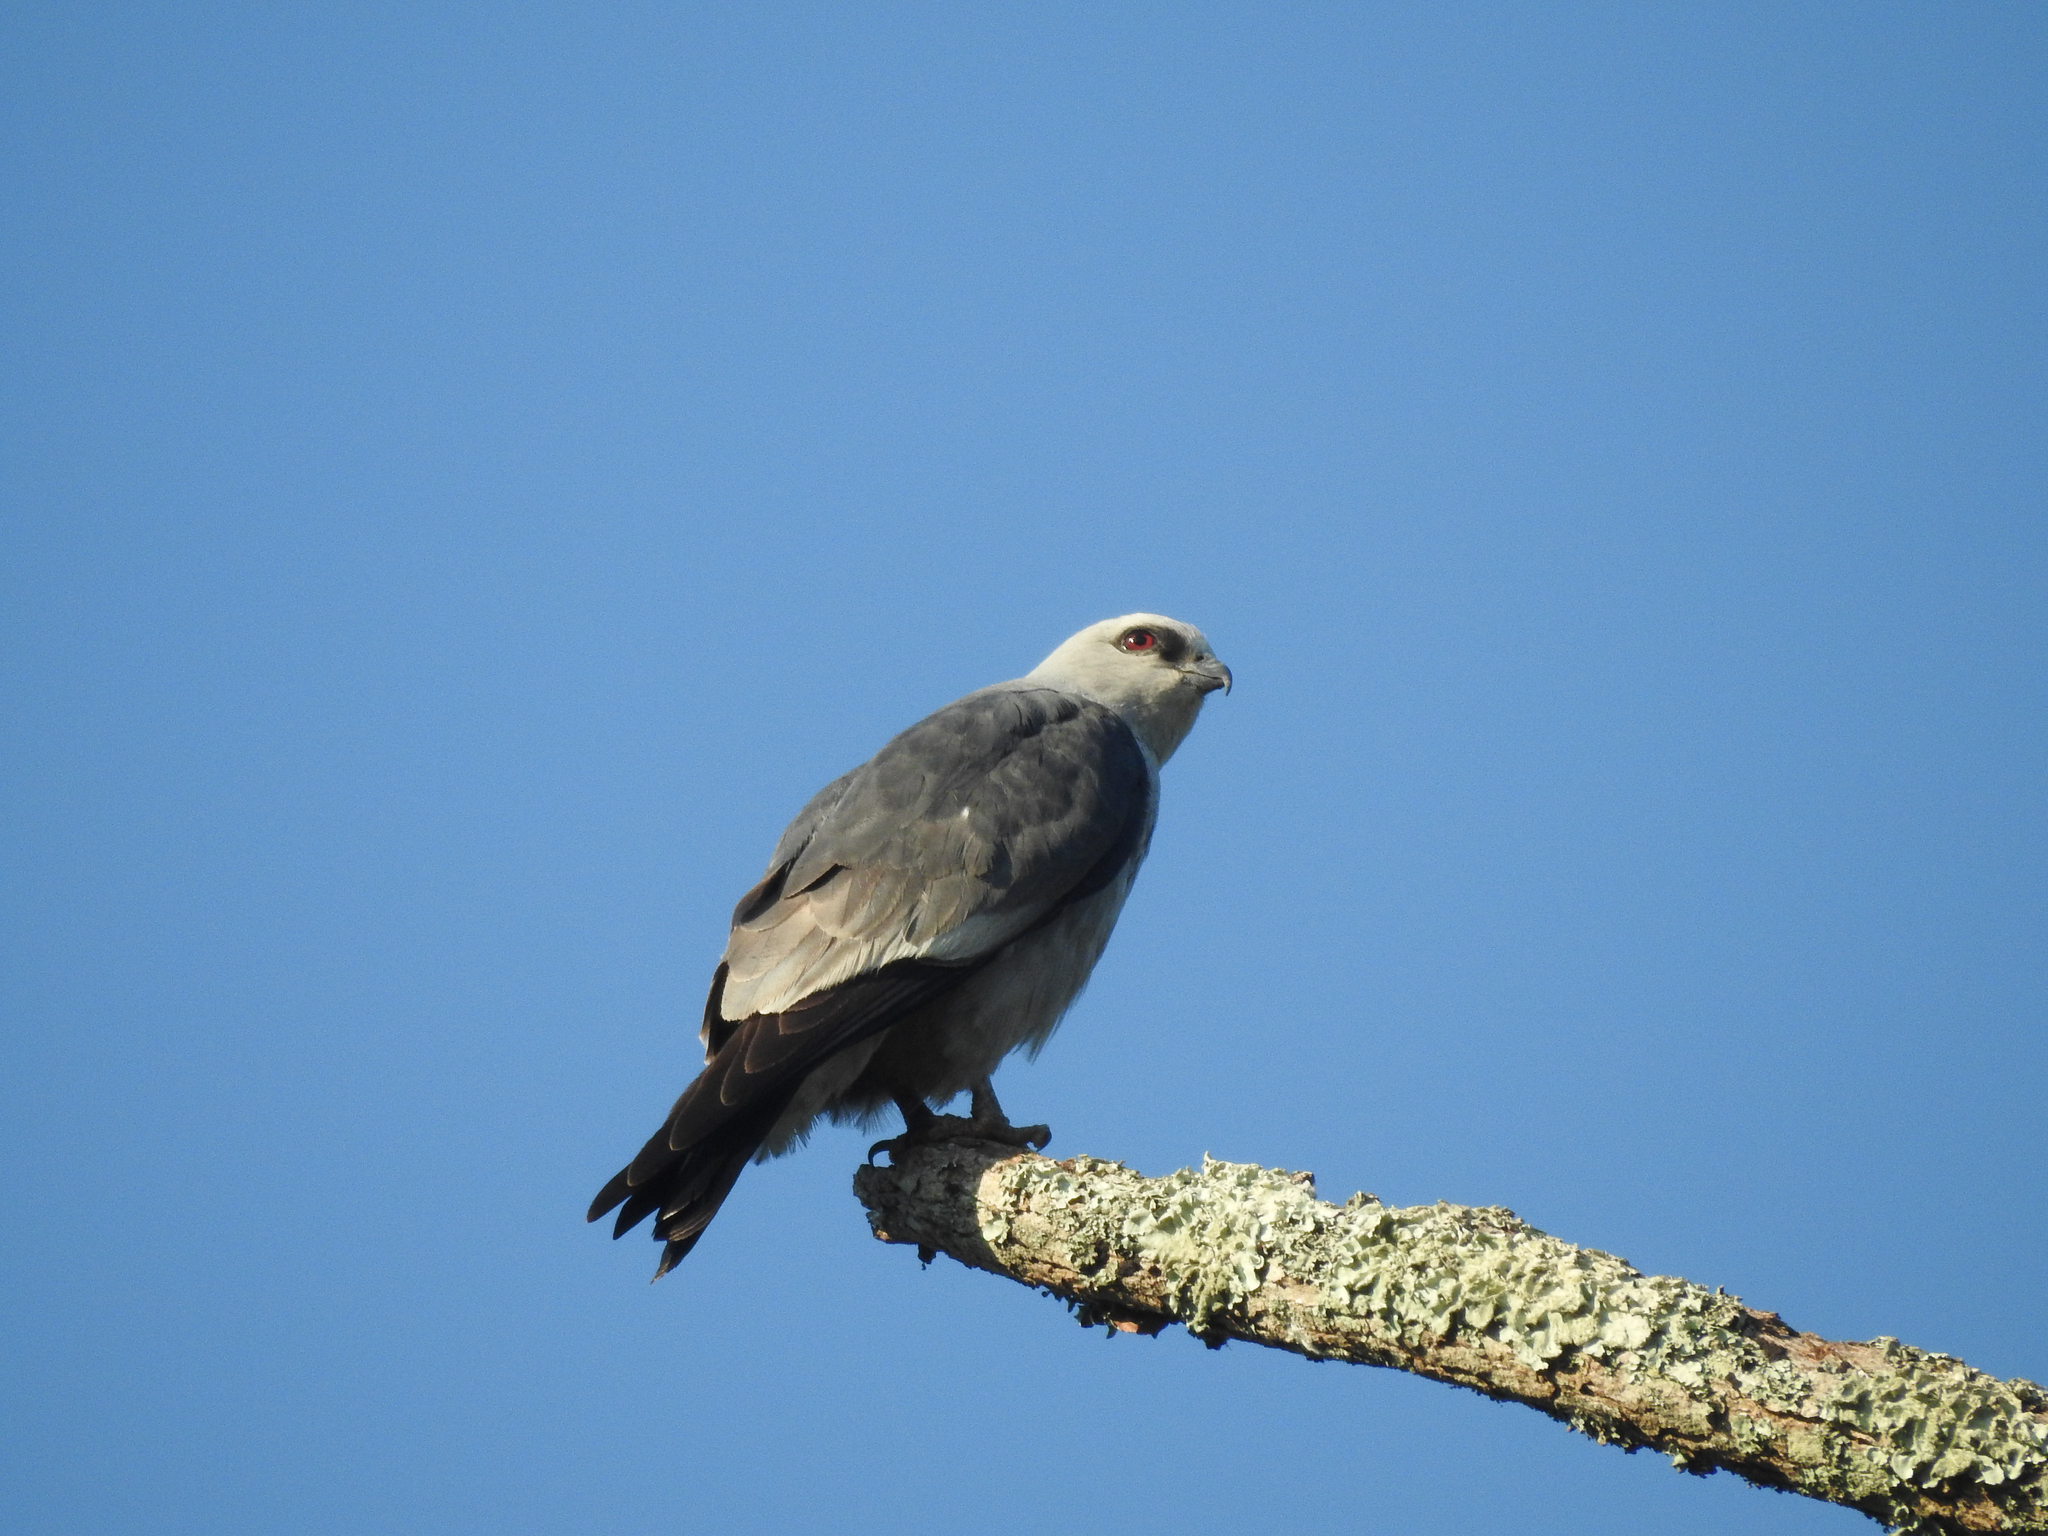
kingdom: Animalia
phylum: Chordata
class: Aves
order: Accipitriformes
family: Accipitridae
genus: Ictinia
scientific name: Ictinia mississippiensis
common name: Mississippi kite
